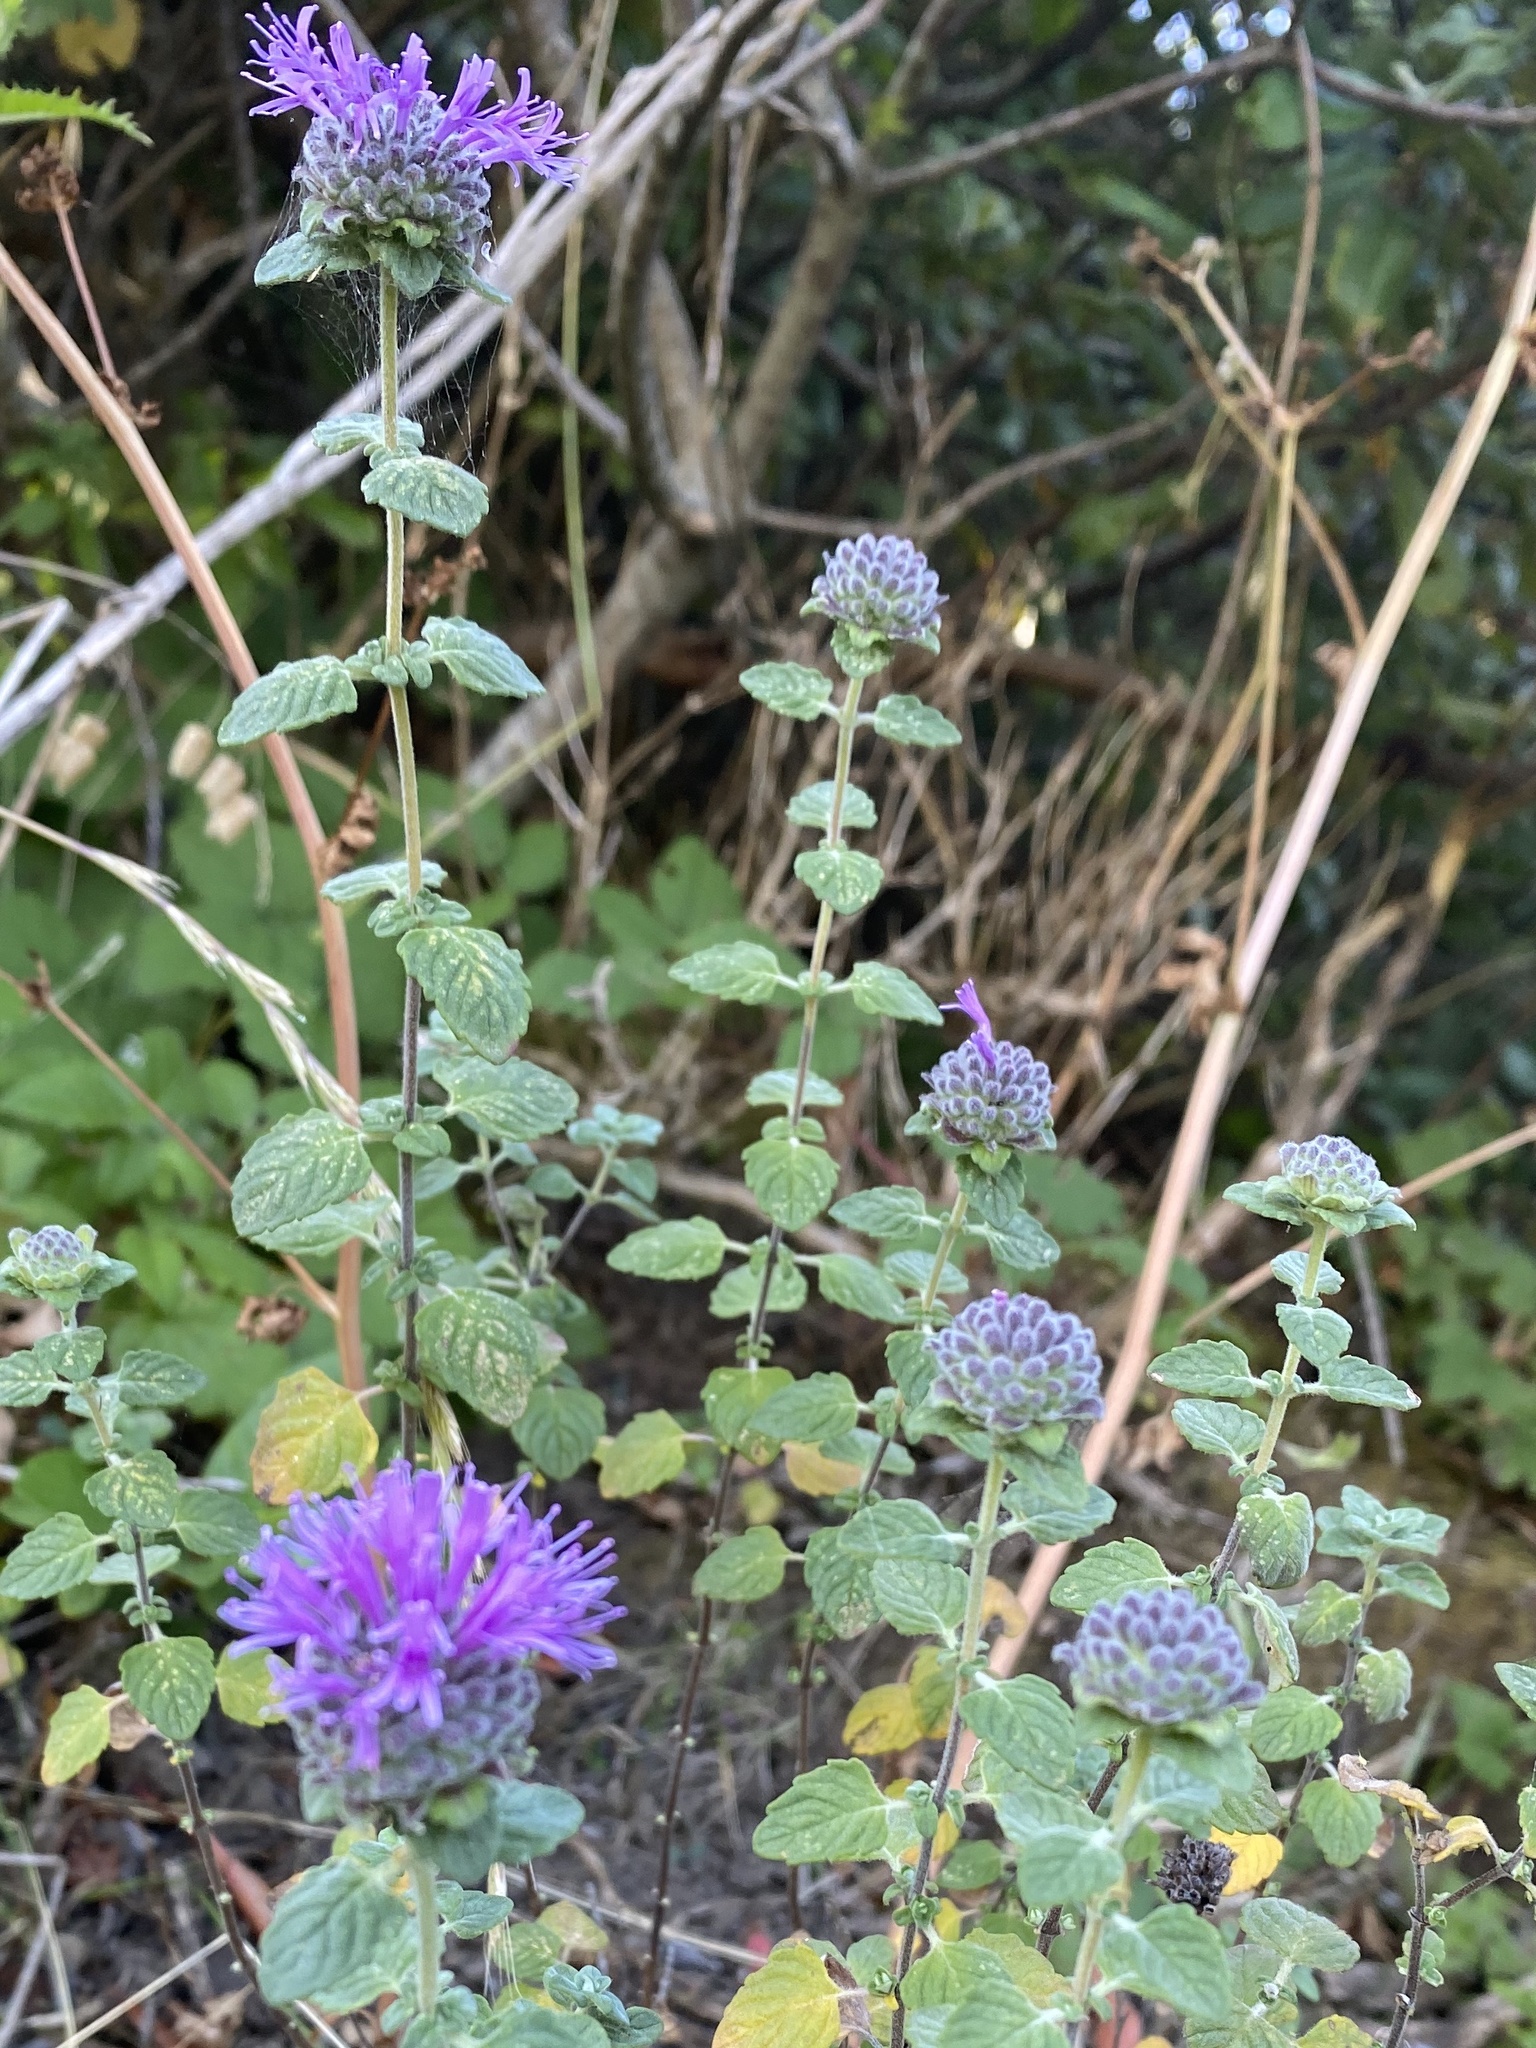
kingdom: Plantae
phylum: Tracheophyta
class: Magnoliopsida
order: Lamiales
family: Lamiaceae
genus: Monardella
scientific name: Monardella odoratissima
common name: Pacific monardella
